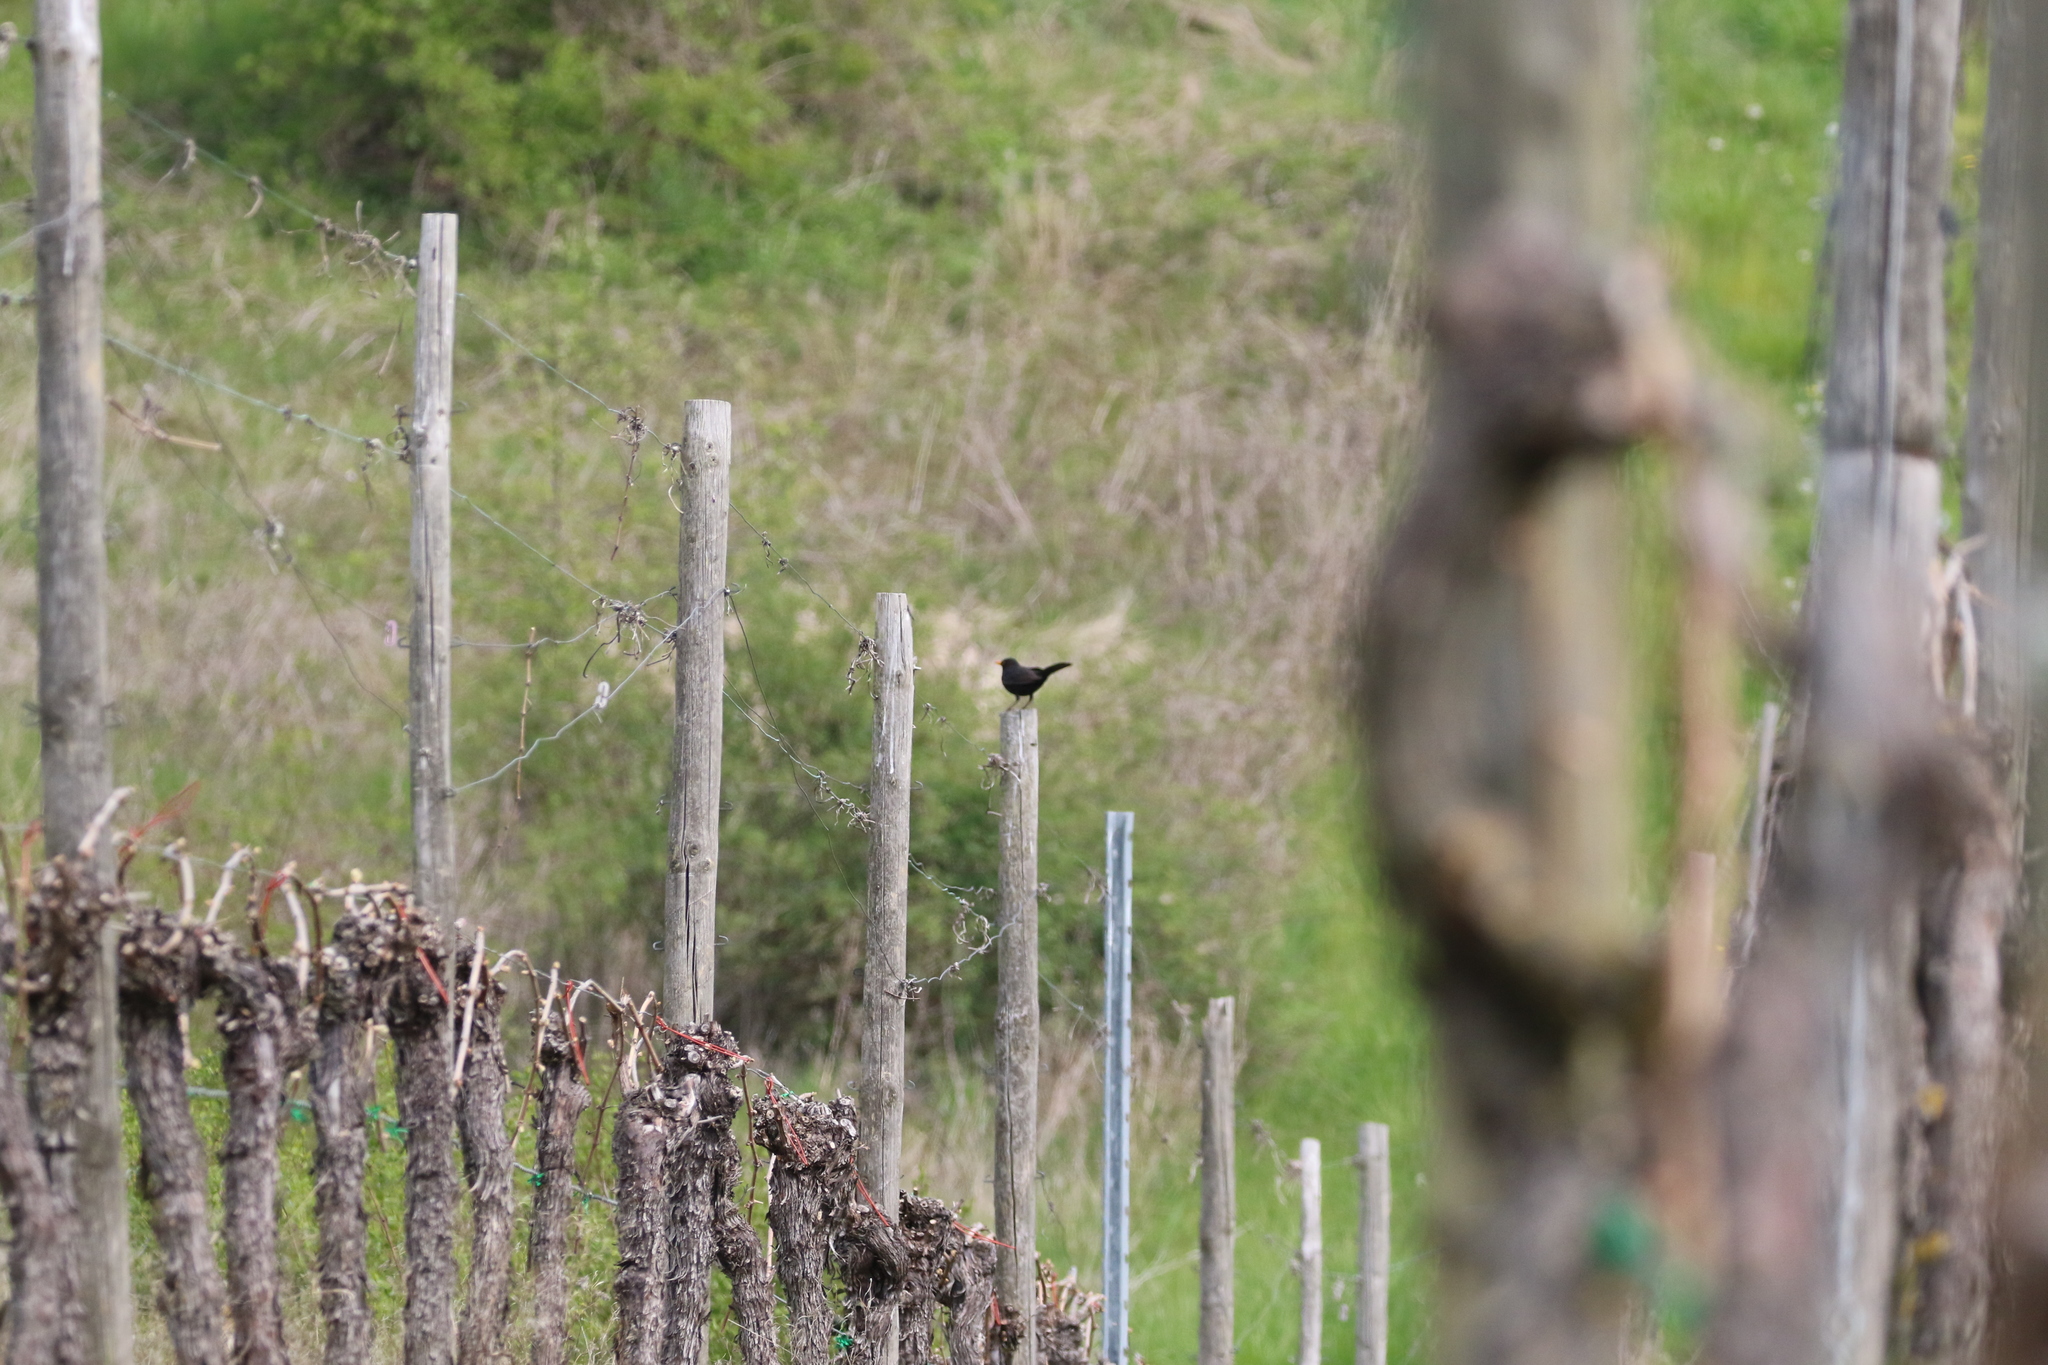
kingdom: Animalia
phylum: Chordata
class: Aves
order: Passeriformes
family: Turdidae
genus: Turdus
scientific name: Turdus merula
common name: Common blackbird
